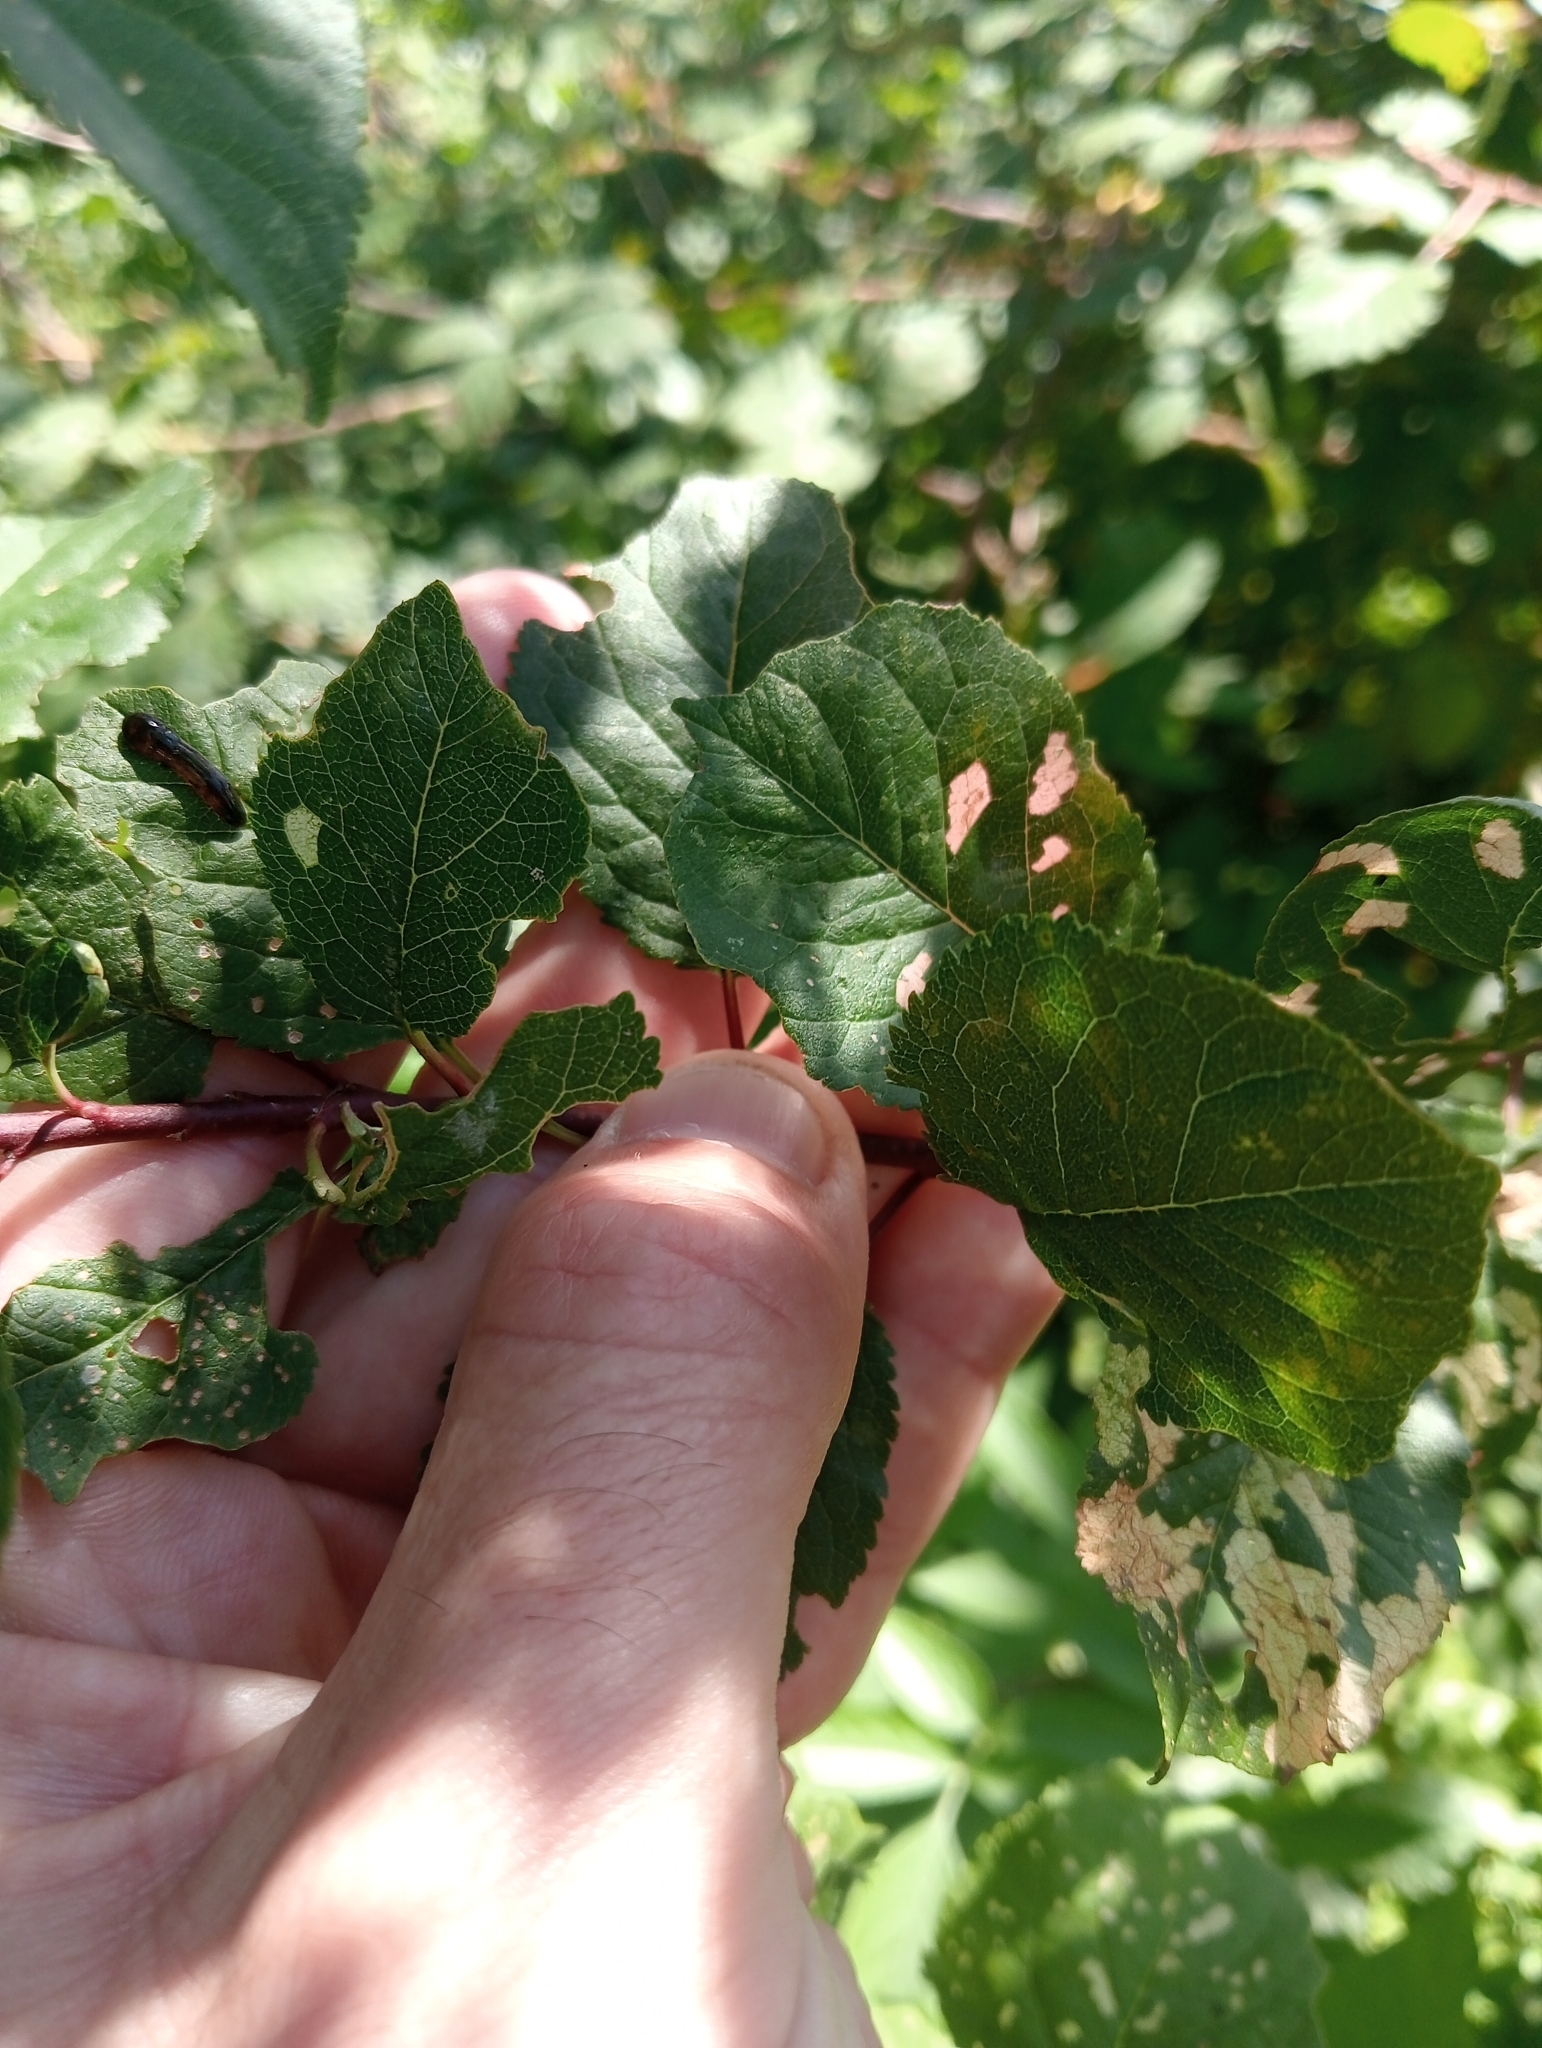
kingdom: Plantae
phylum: Tracheophyta
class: Magnoliopsida
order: Rosales
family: Rosaceae
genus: Prunus
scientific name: Prunus cerasifera
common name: Cherry plum
